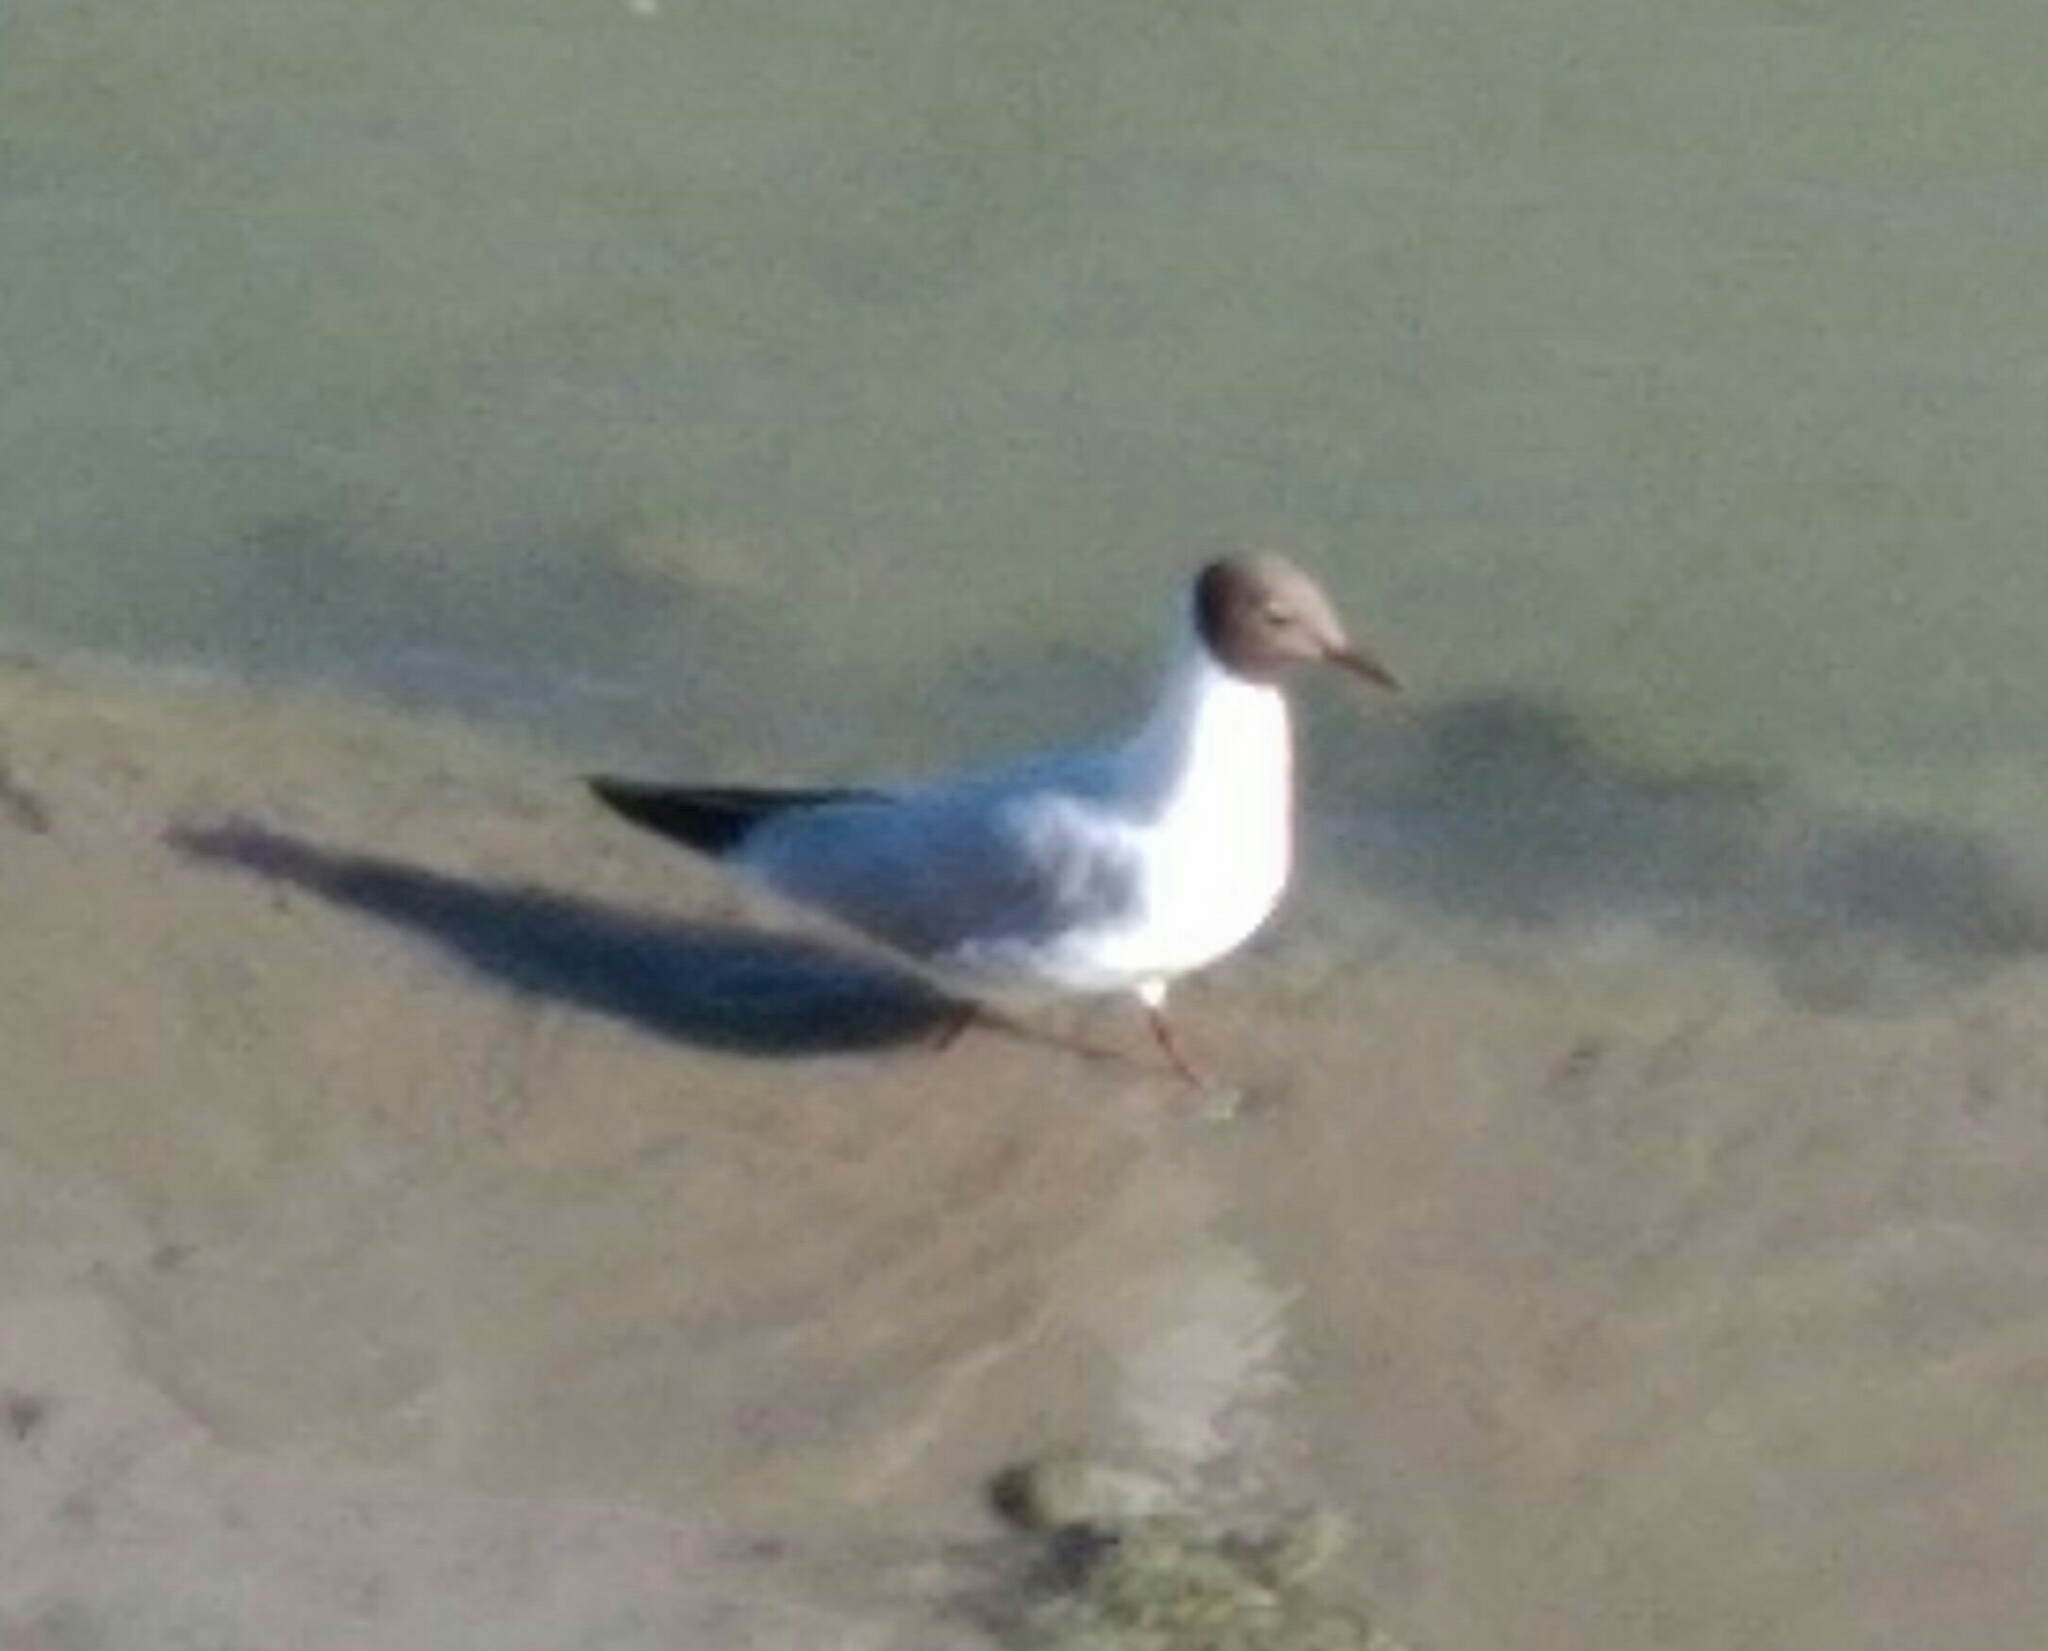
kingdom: Animalia
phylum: Chordata
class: Aves
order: Charadriiformes
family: Laridae
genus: Chroicocephalus
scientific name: Chroicocephalus ridibundus
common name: Black-headed gull
